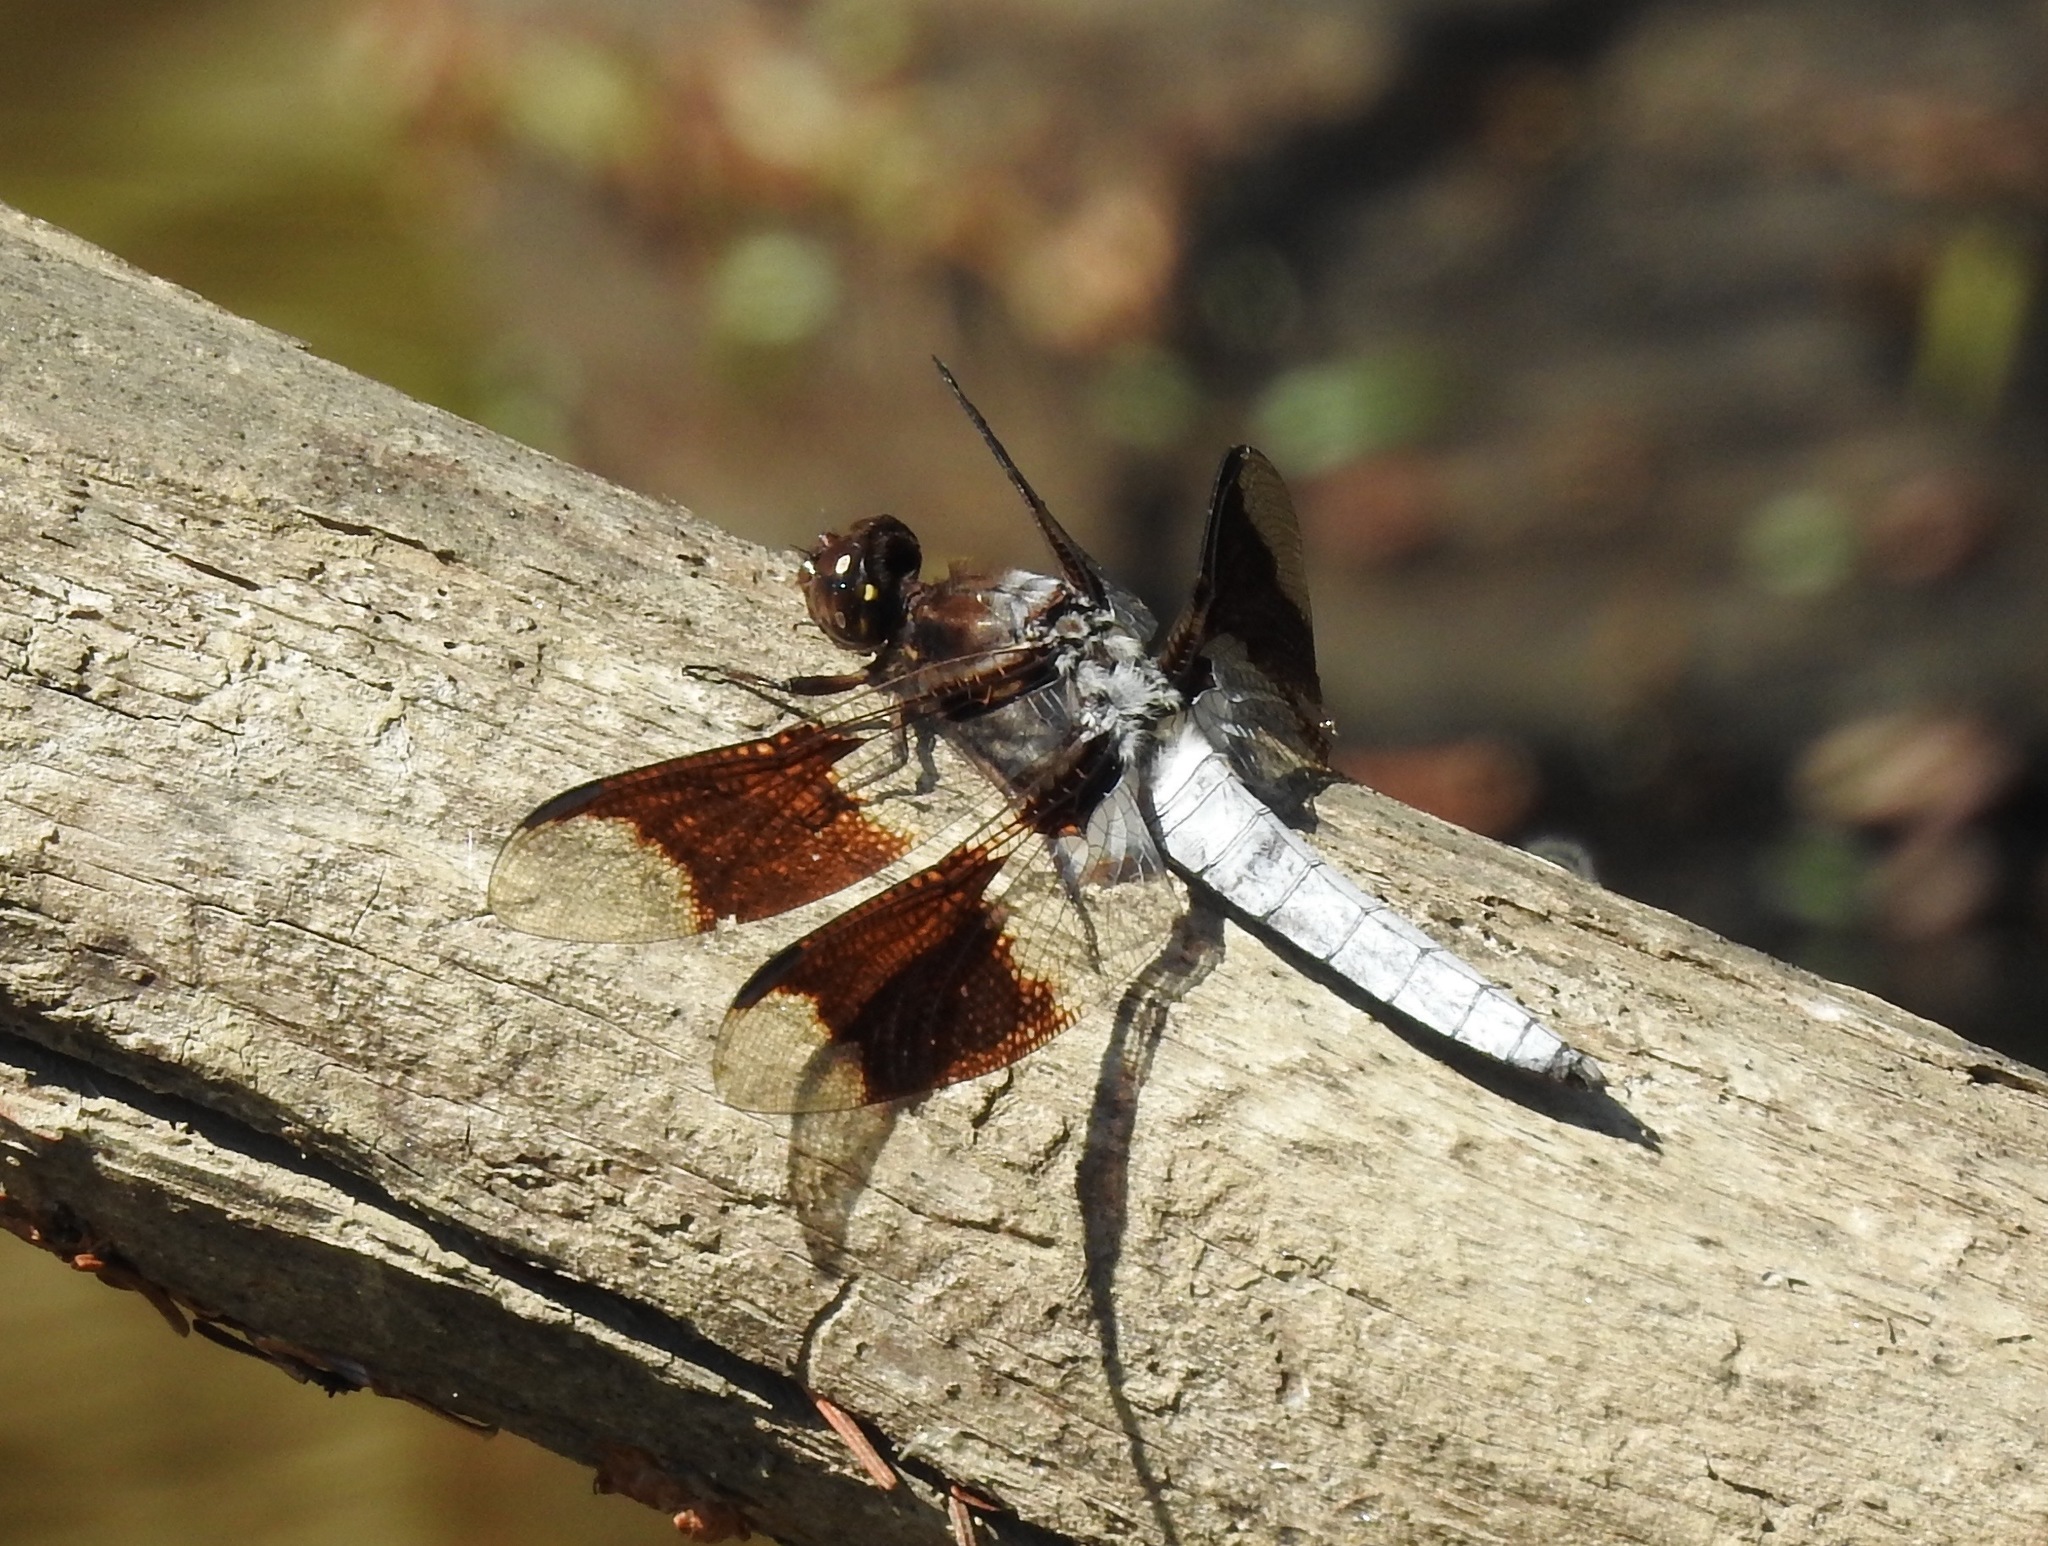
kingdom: Animalia
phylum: Arthropoda
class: Insecta
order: Odonata
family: Libellulidae
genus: Plathemis
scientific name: Plathemis lydia
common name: Common whitetail
